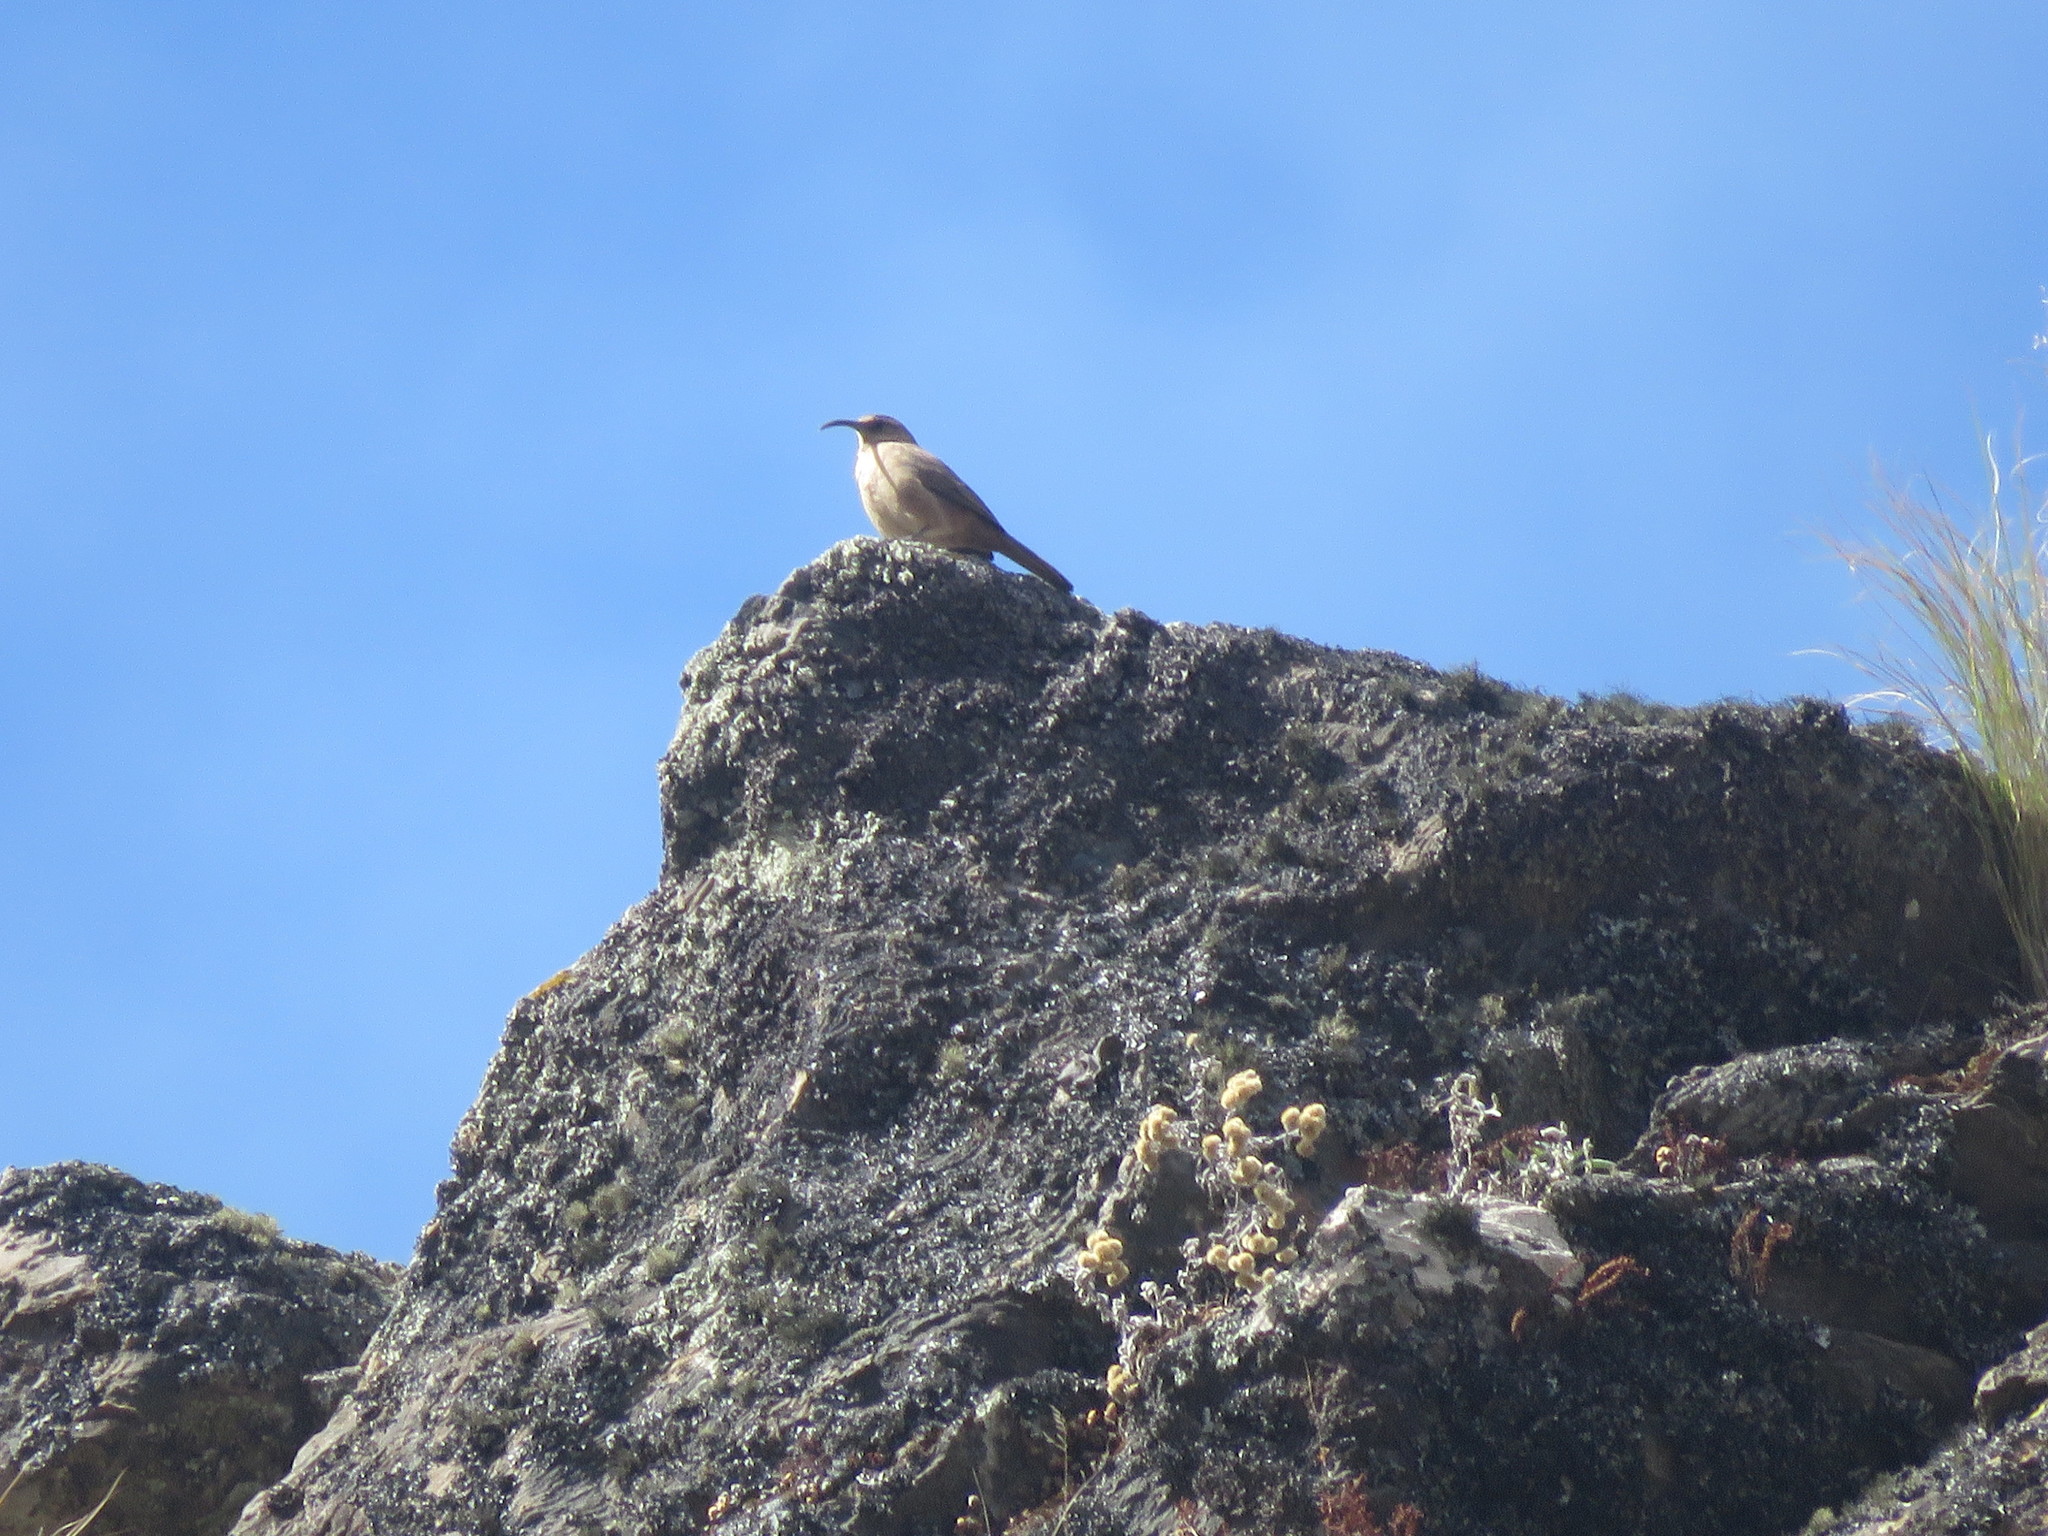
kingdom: Animalia
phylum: Chordata
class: Aves
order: Passeriformes
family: Furnariidae
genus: Upucerthia
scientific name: Upucerthia validirostris
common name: Buff-breasted earthcreeper
